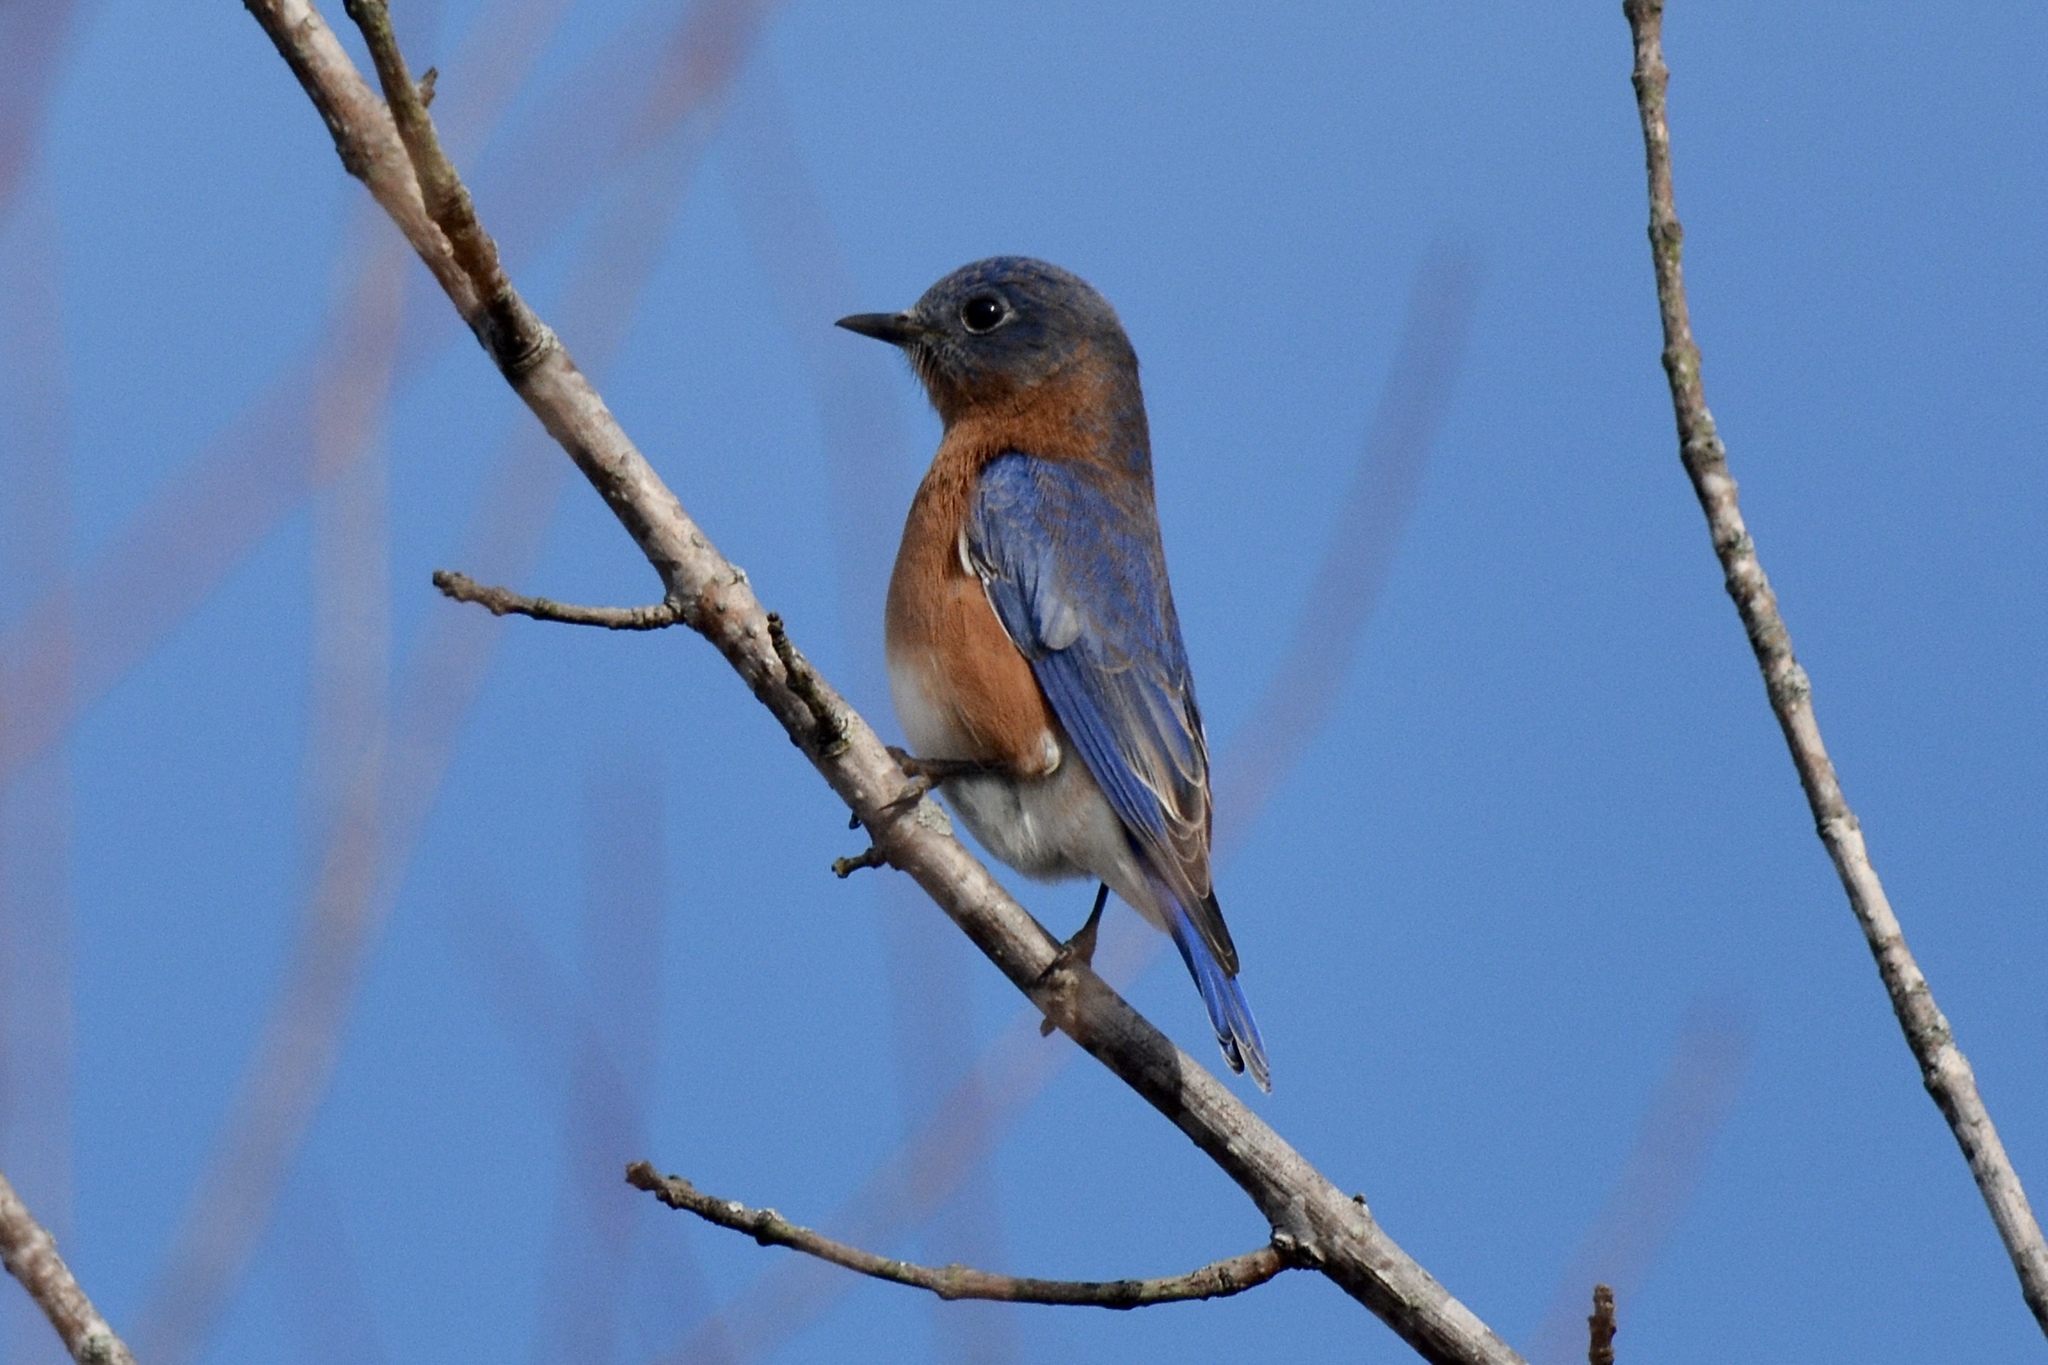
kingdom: Animalia
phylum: Chordata
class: Aves
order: Passeriformes
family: Turdidae
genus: Sialia
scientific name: Sialia sialis
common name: Eastern bluebird
